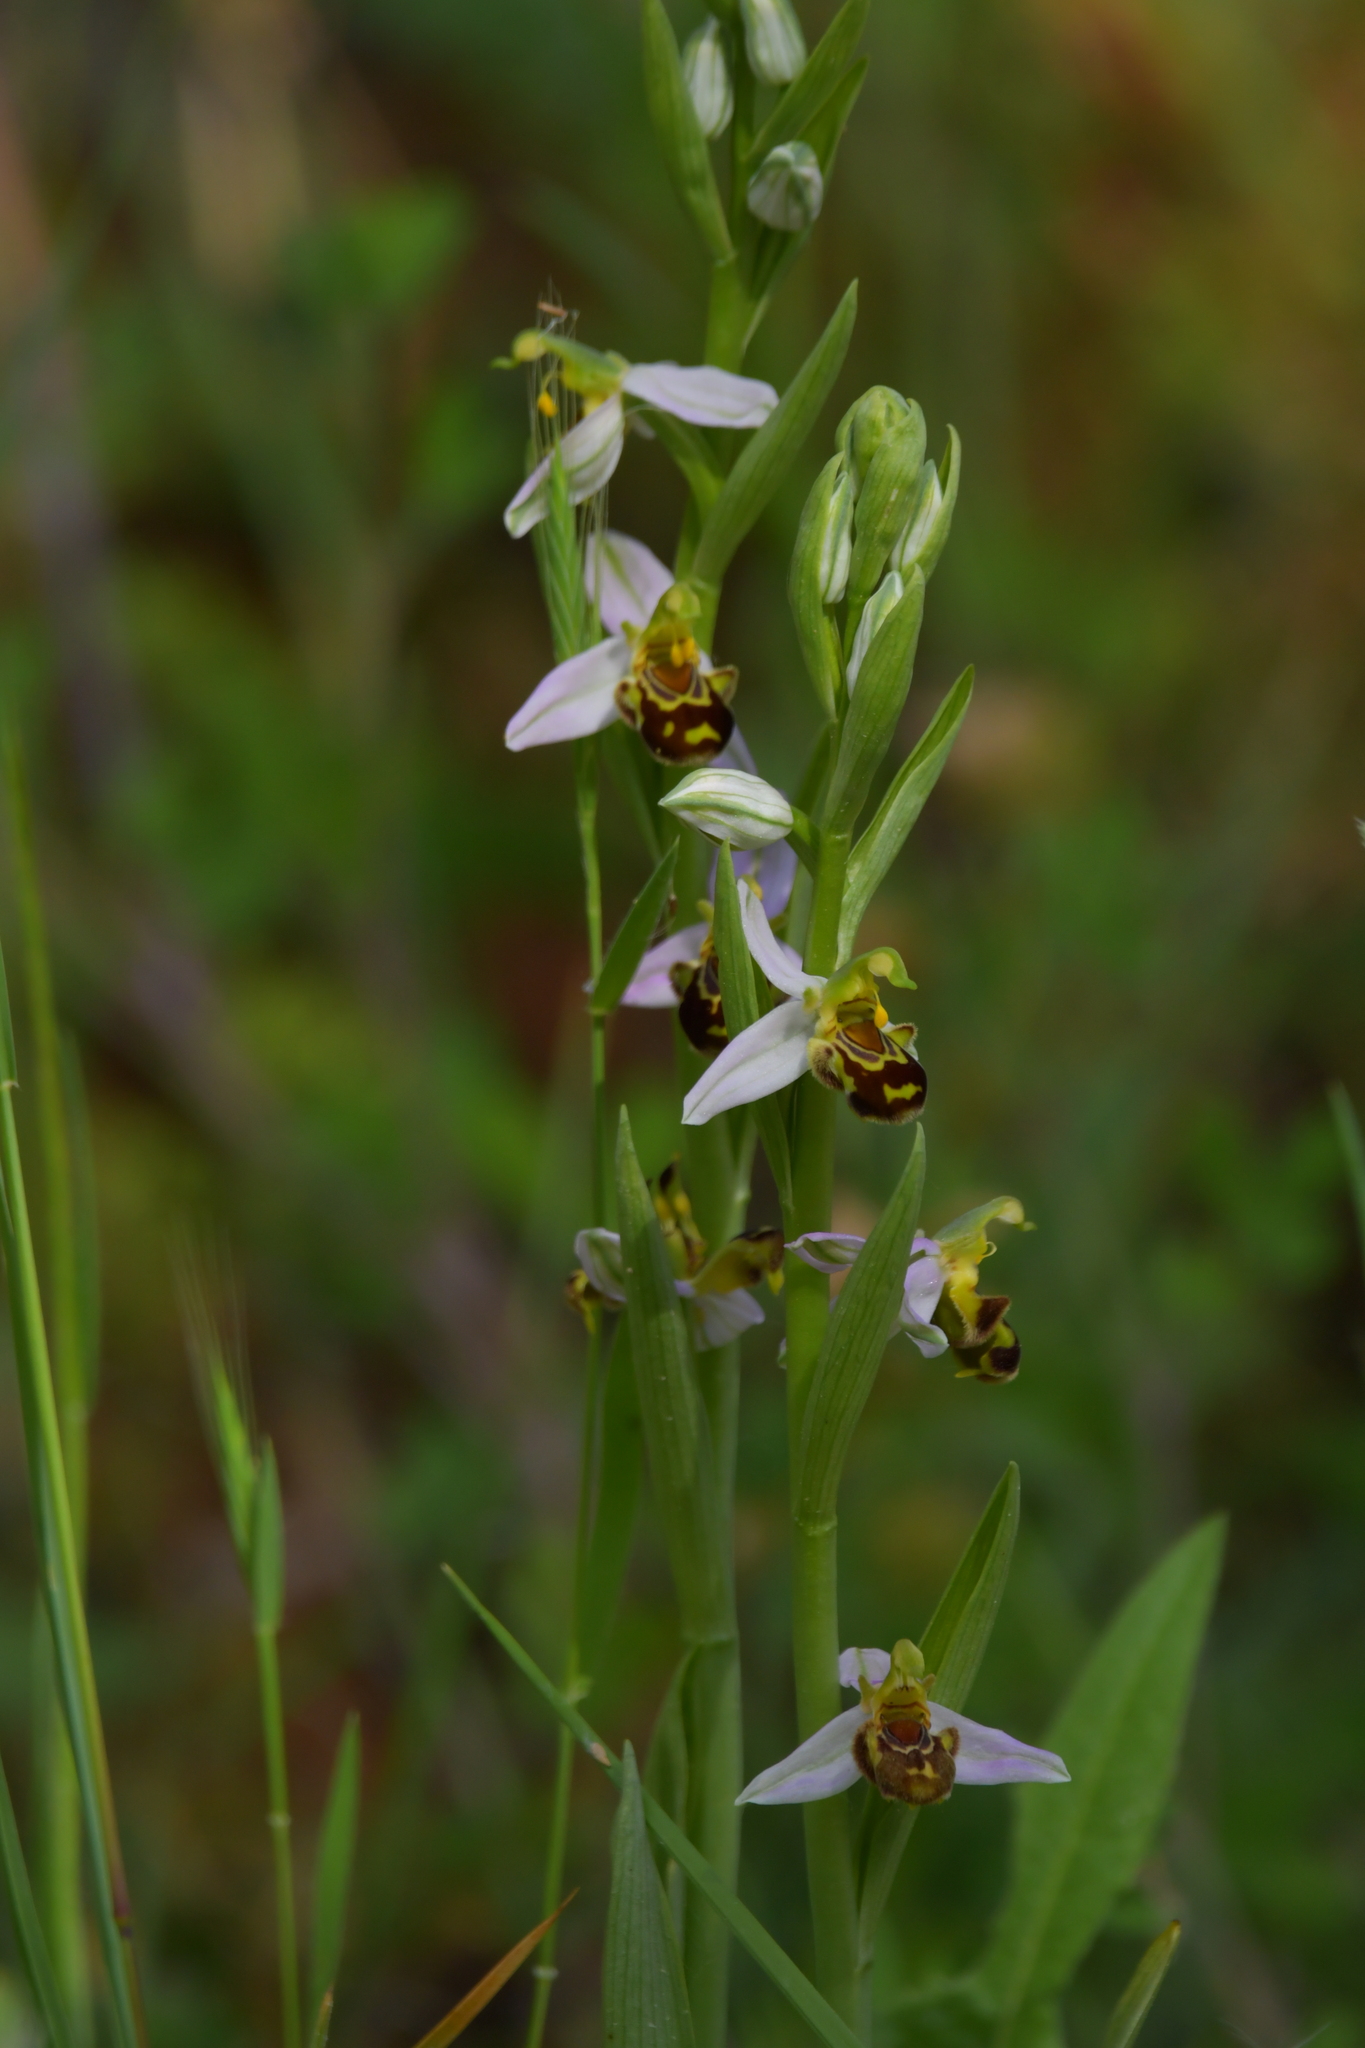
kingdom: Plantae
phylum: Tracheophyta
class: Liliopsida
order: Asparagales
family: Orchidaceae
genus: Ophrys
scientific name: Ophrys apifera
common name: Bee orchid
